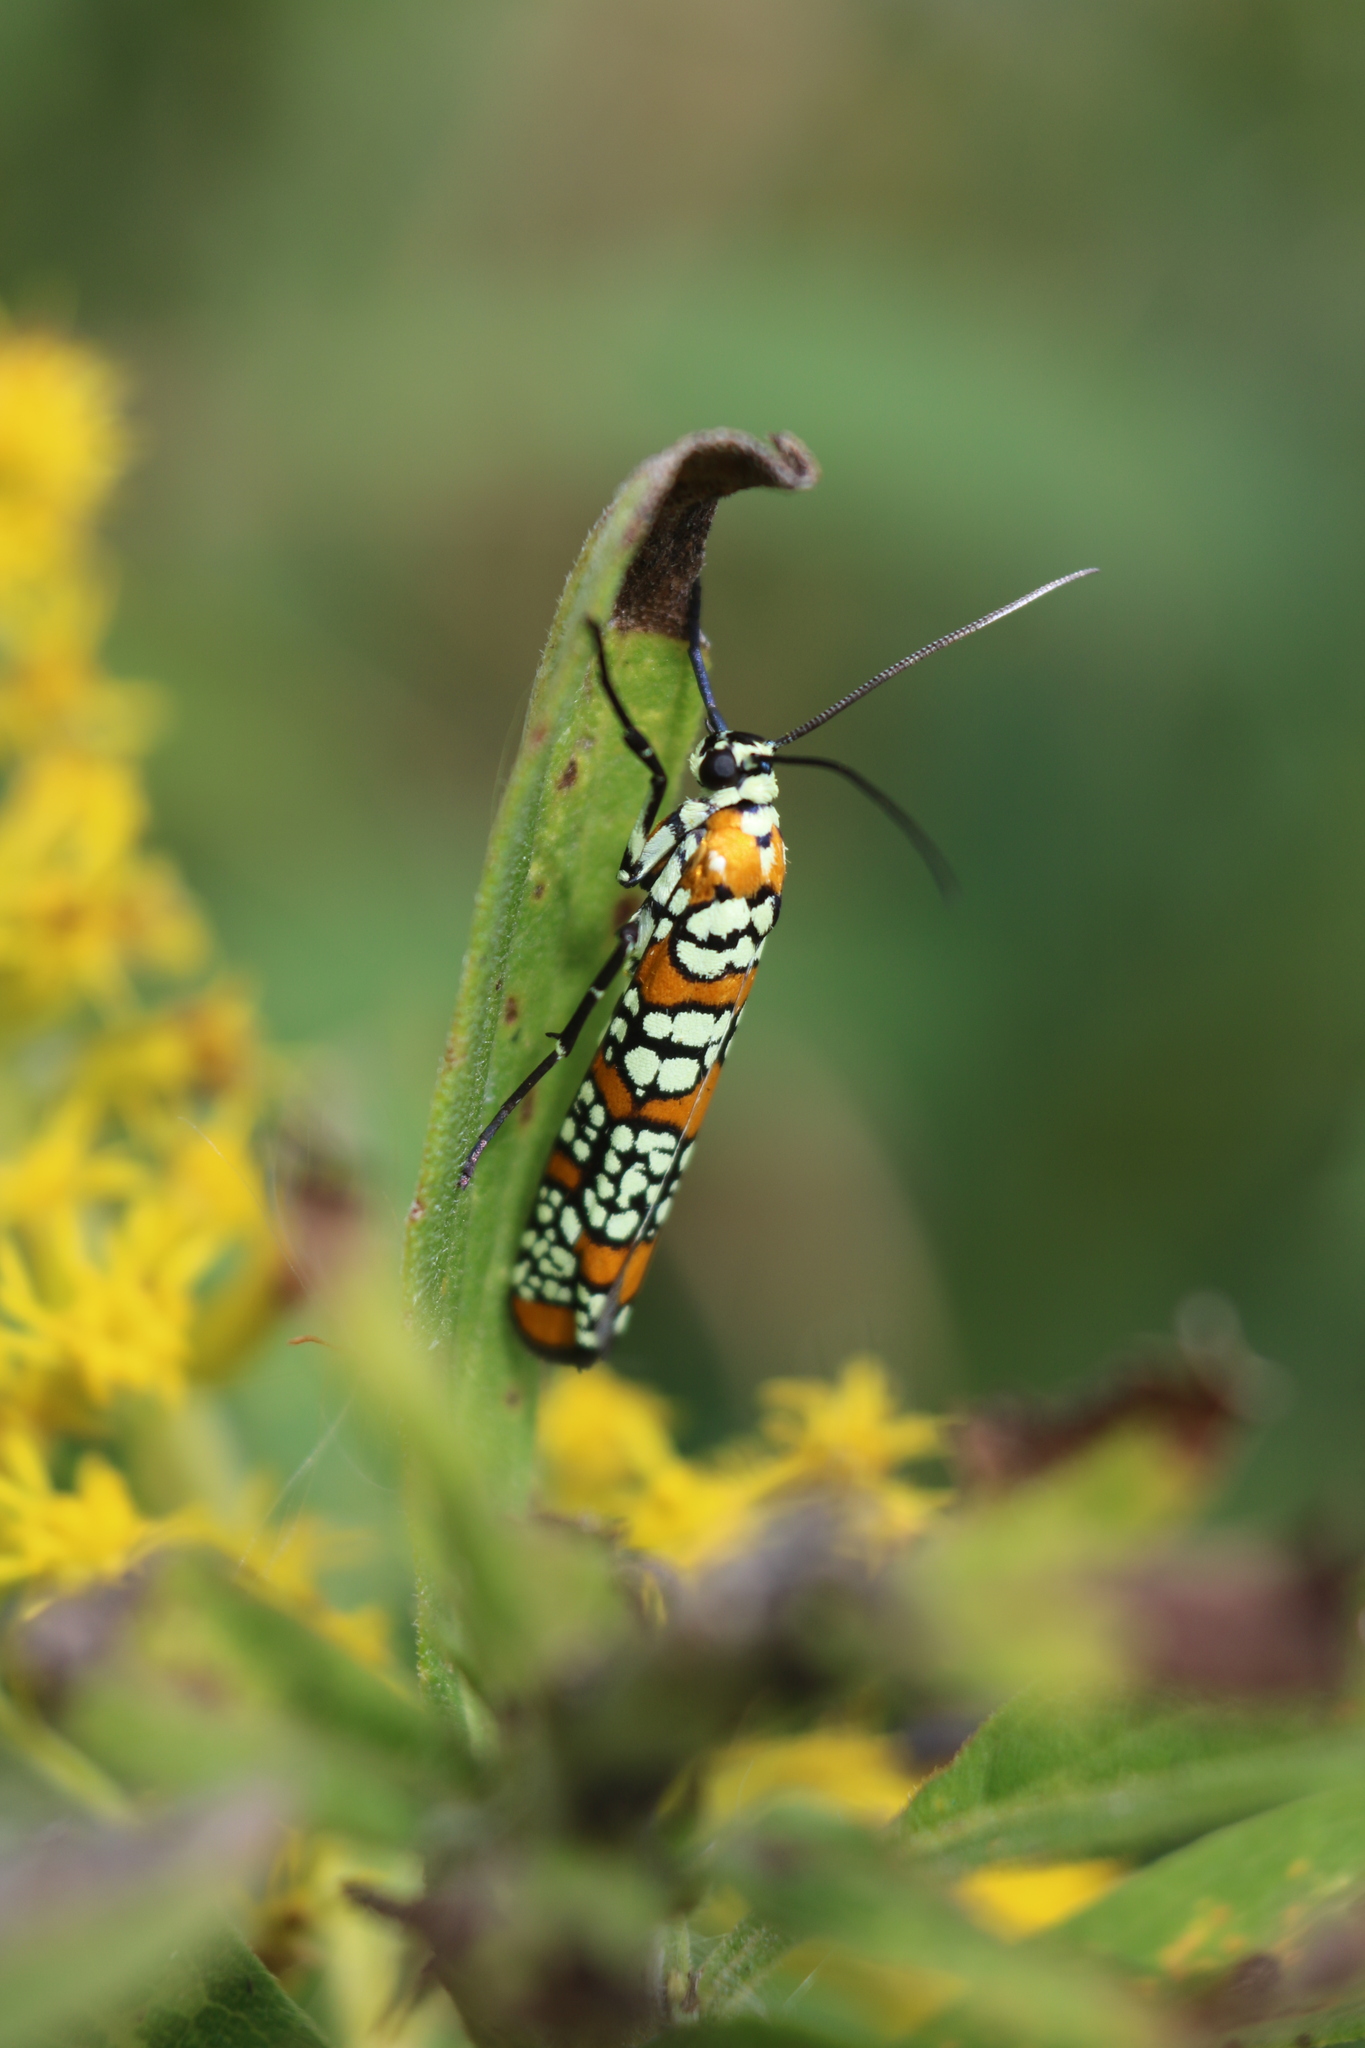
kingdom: Animalia
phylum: Arthropoda
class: Insecta
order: Lepidoptera
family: Attevidae
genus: Atteva
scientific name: Atteva punctella
